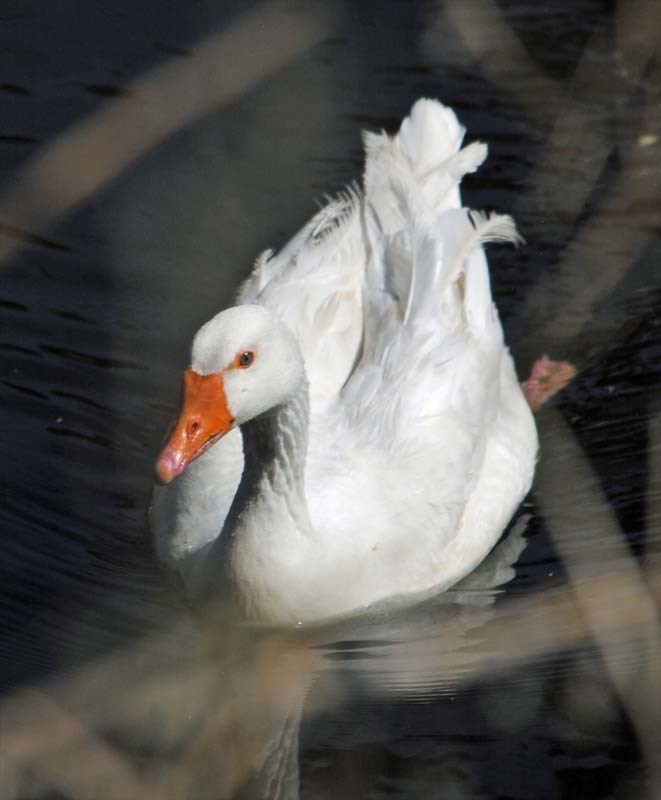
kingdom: Animalia
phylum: Chordata
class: Aves
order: Anseriformes
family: Anatidae
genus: Anser
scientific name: Anser anser
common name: Greylag goose
